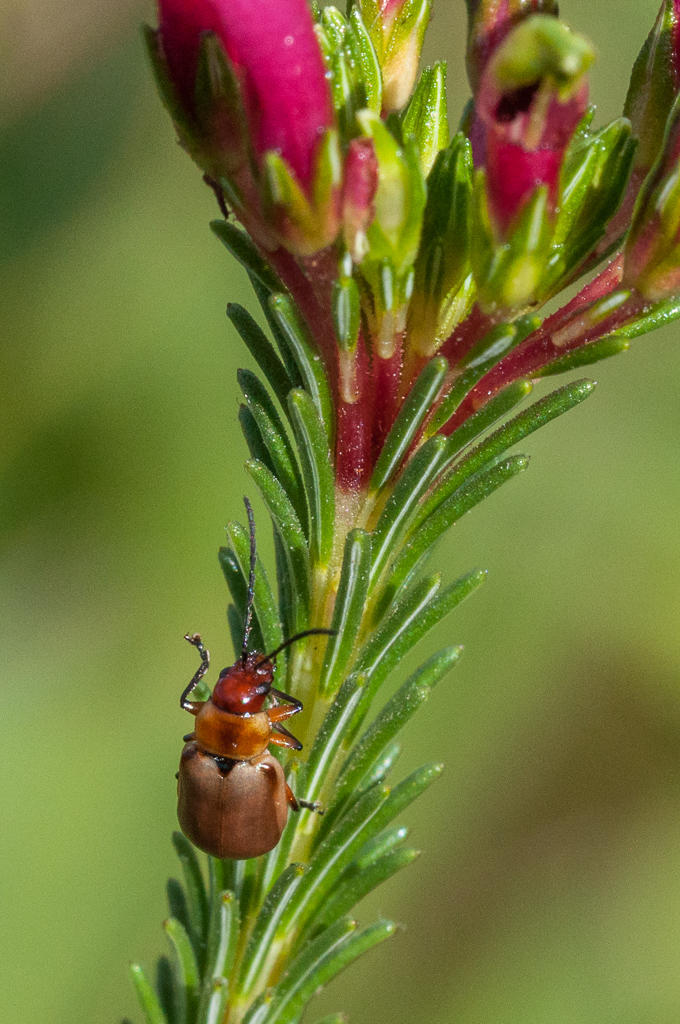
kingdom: Plantae
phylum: Tracheophyta
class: Magnoliopsida
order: Ericales
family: Ericaceae
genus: Erica
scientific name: Erica fascicularis
